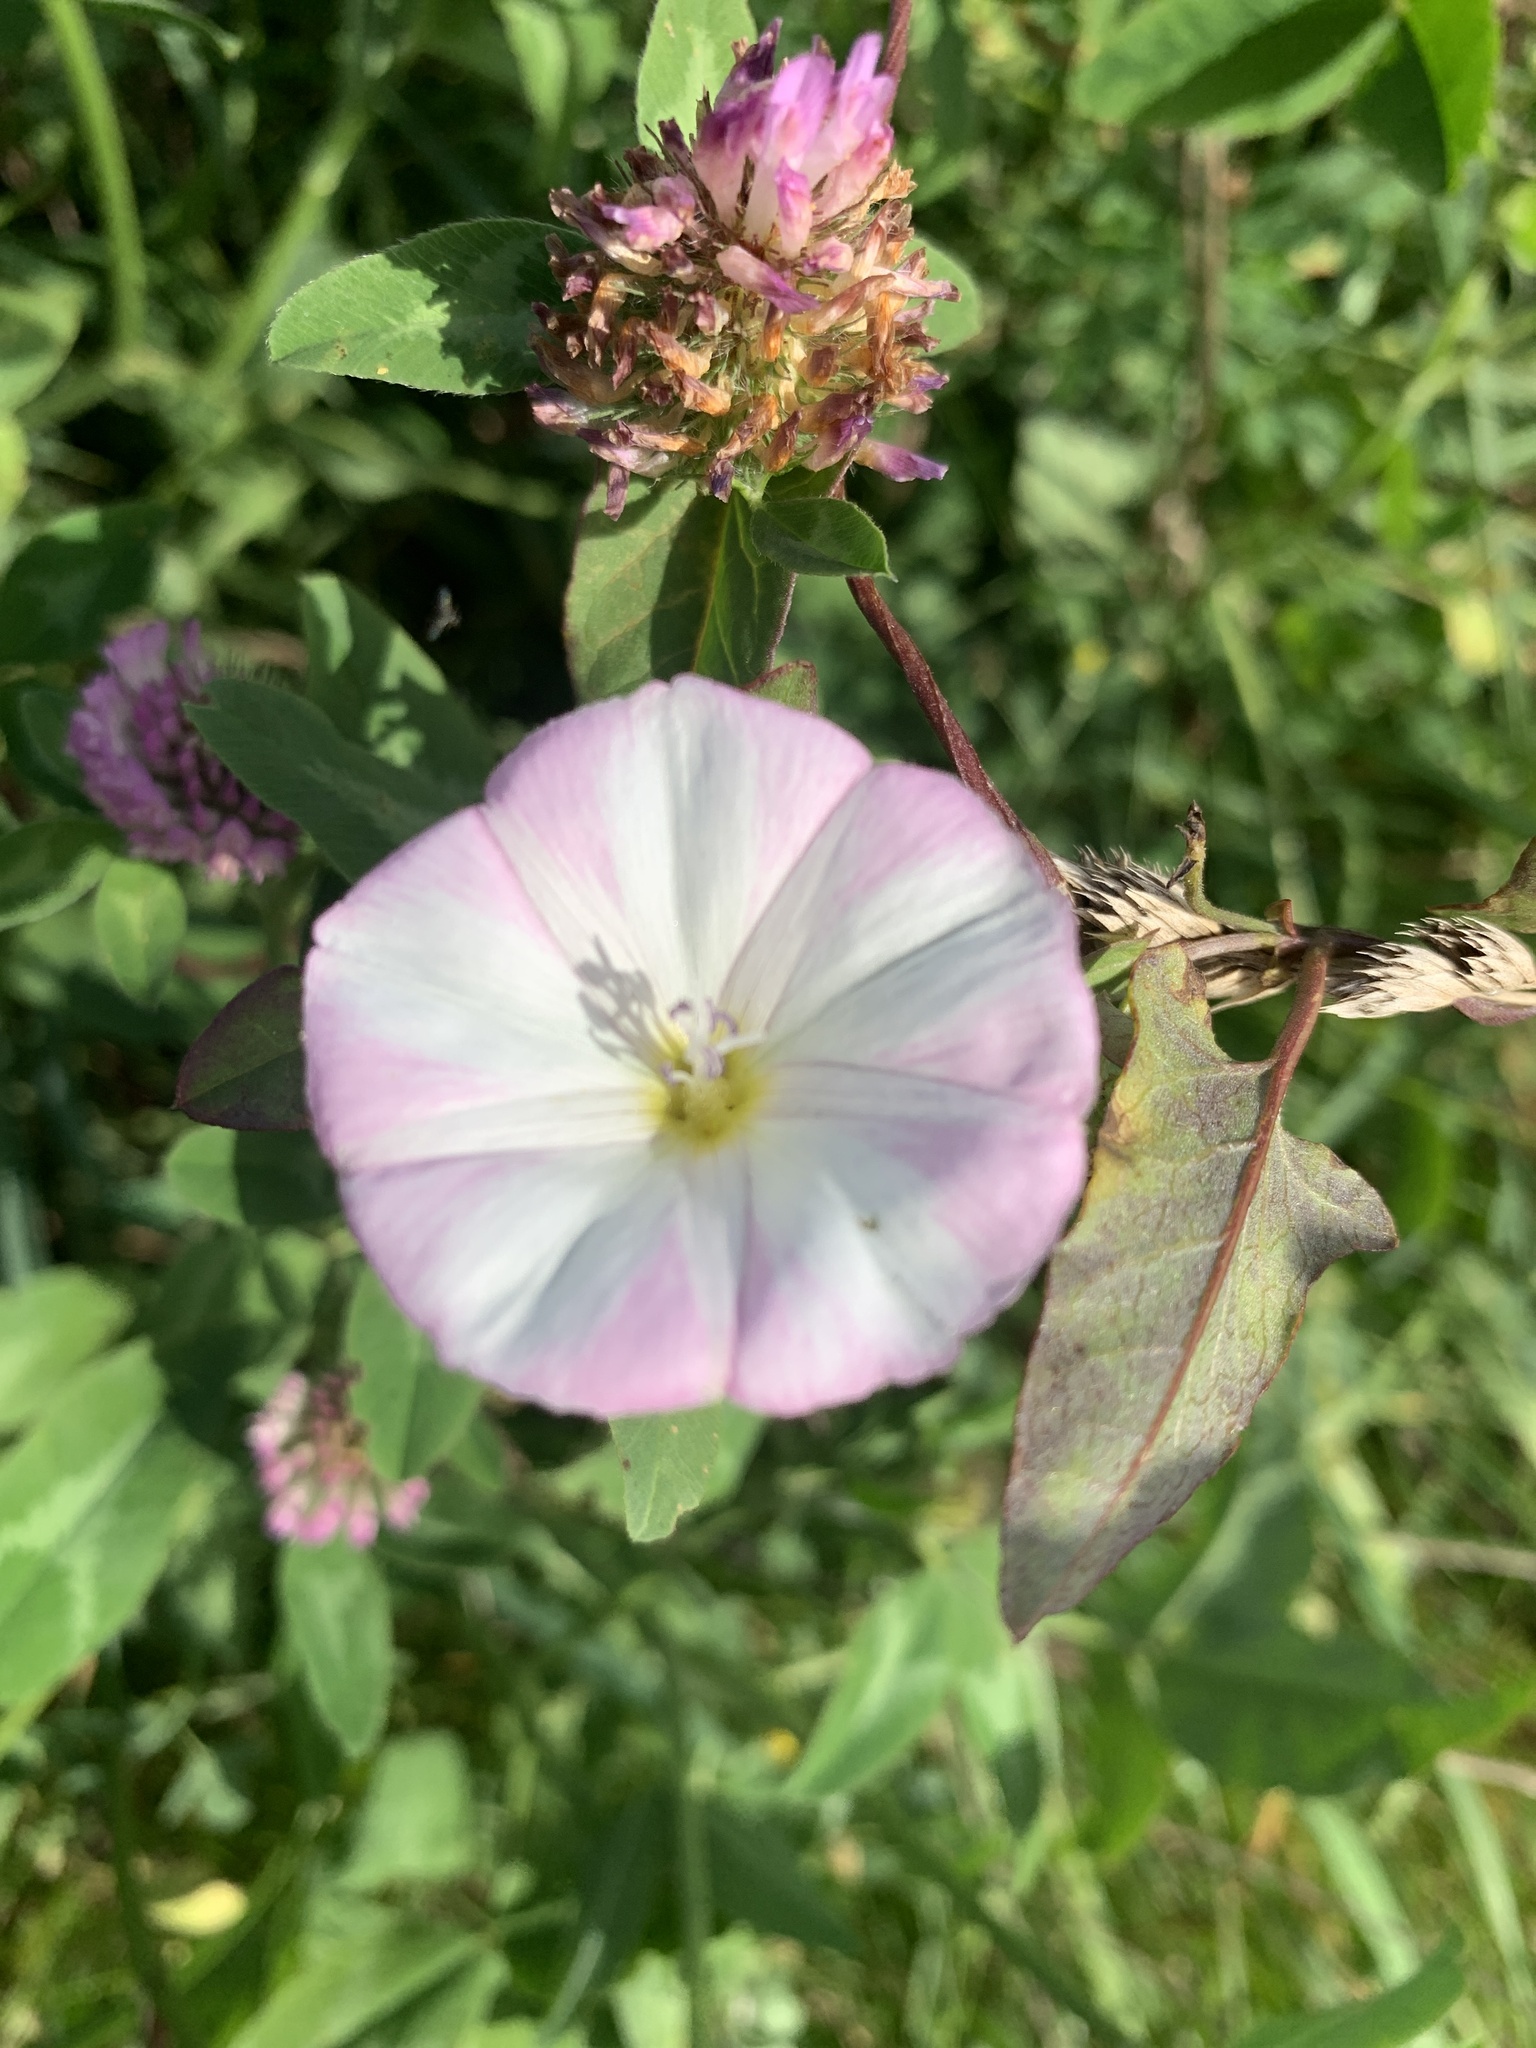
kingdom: Plantae
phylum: Tracheophyta
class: Magnoliopsida
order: Solanales
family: Convolvulaceae
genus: Convolvulus
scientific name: Convolvulus arvensis
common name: Field bindweed
